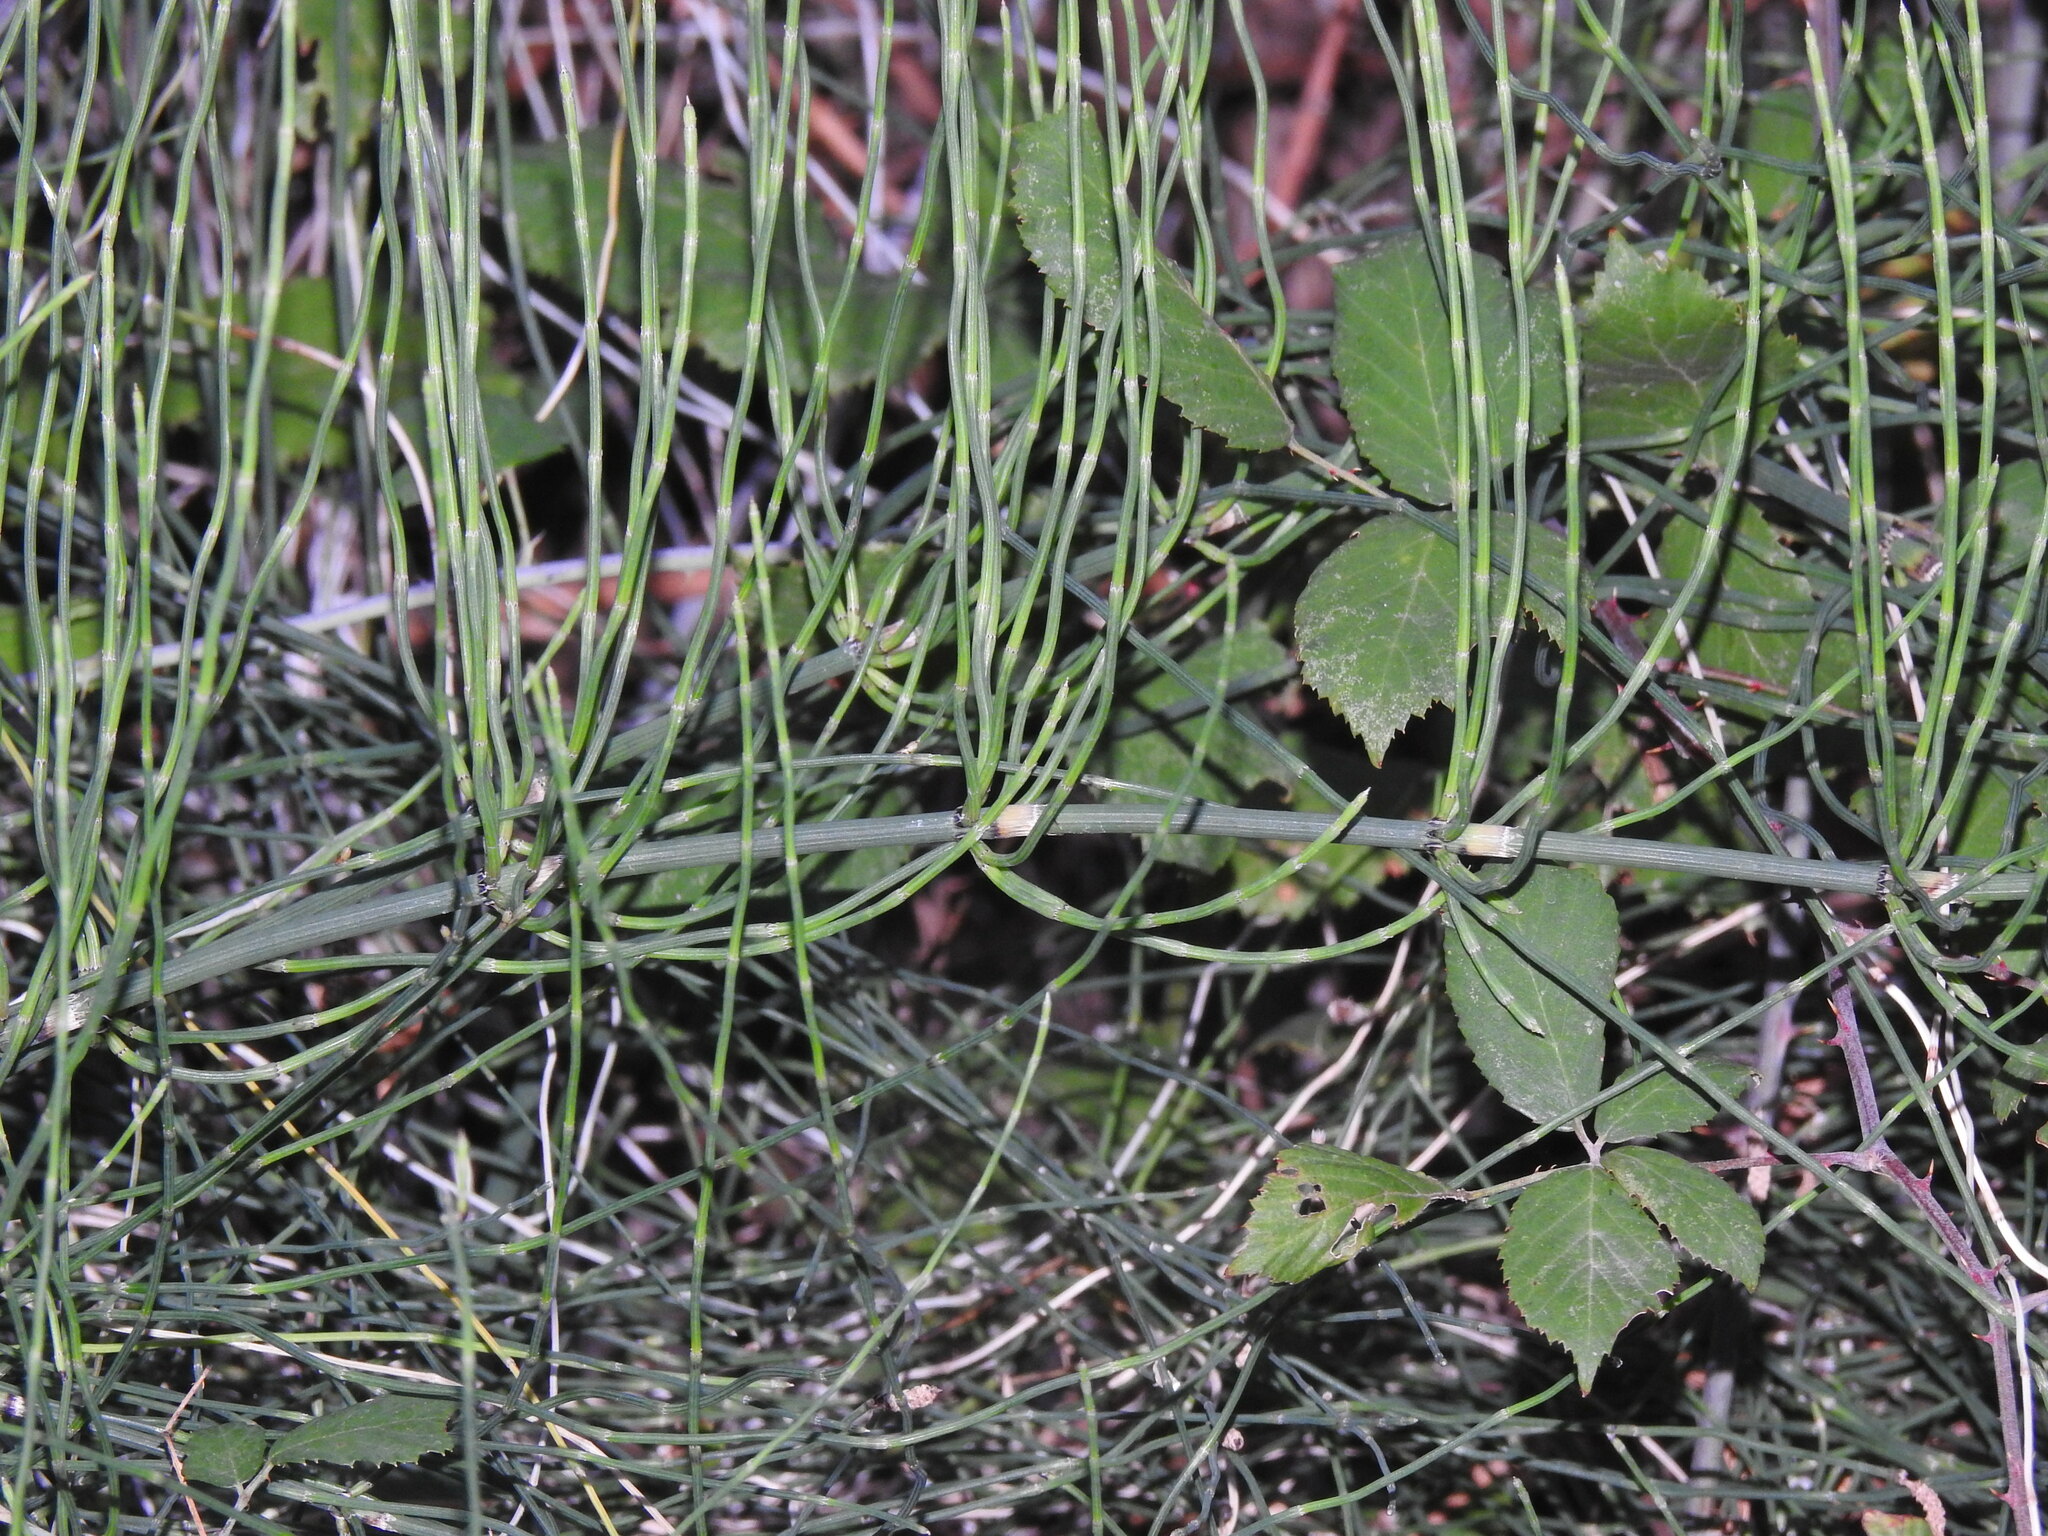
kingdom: Plantae
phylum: Tracheophyta
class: Polypodiopsida
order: Equisetales
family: Equisetaceae
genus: Equisetum
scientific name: Equisetum ramosissimum
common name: Branched horsetail
